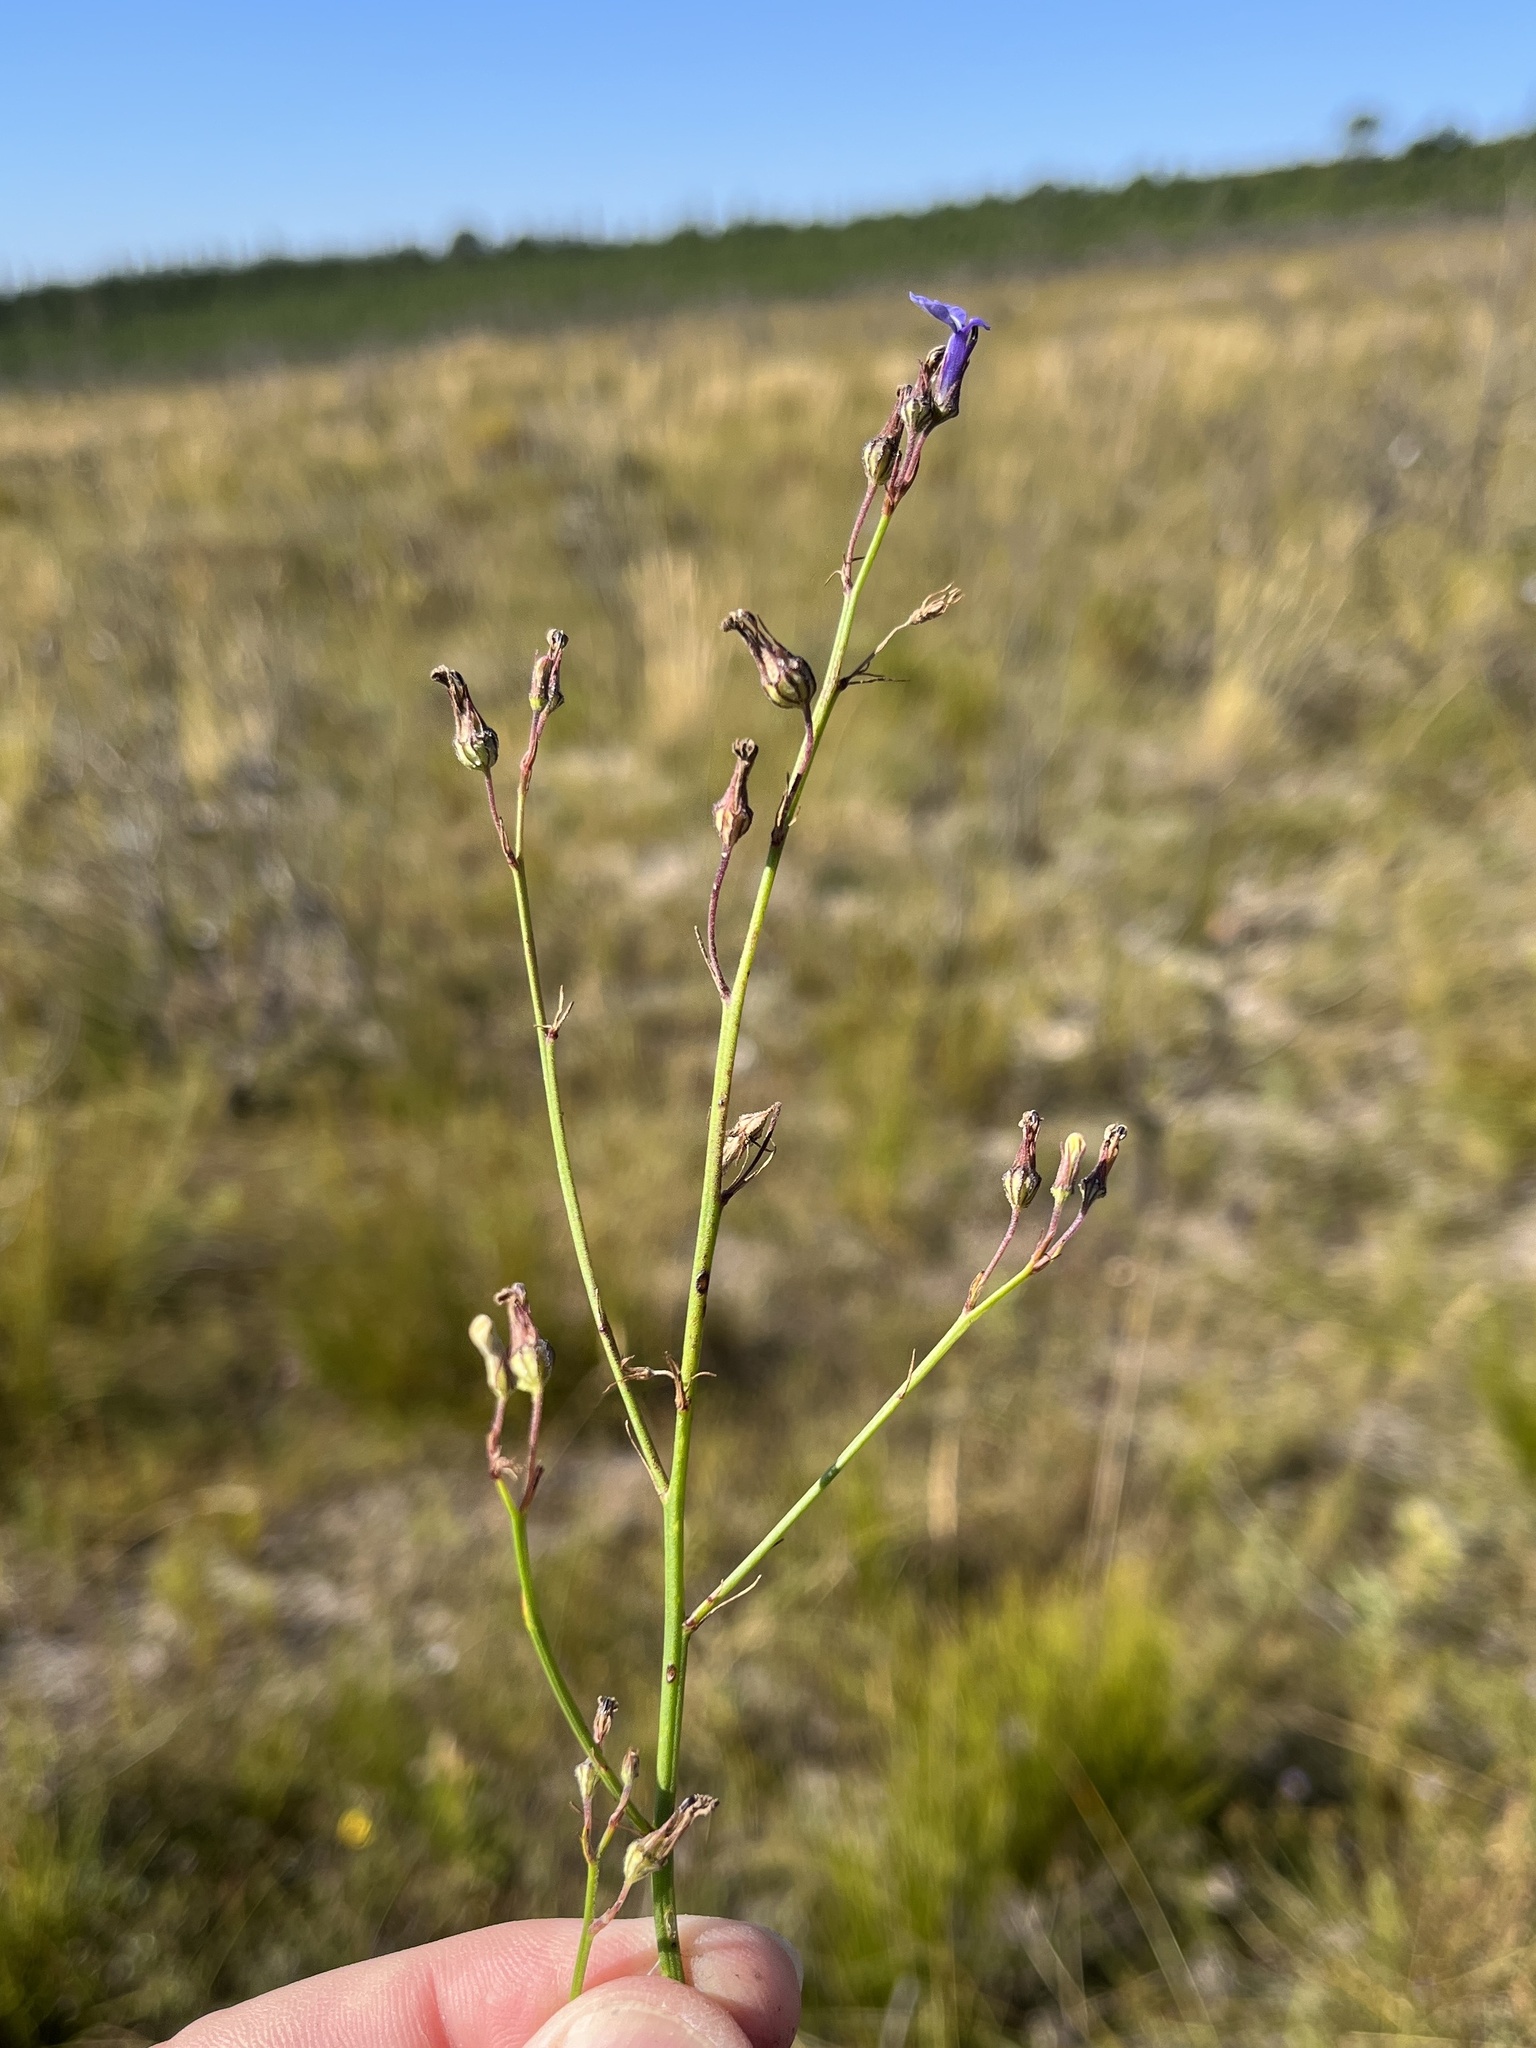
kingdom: Plantae
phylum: Tracheophyta
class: Magnoliopsida
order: Asterales
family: Campanulaceae
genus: Lobelia
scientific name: Lobelia linearis
